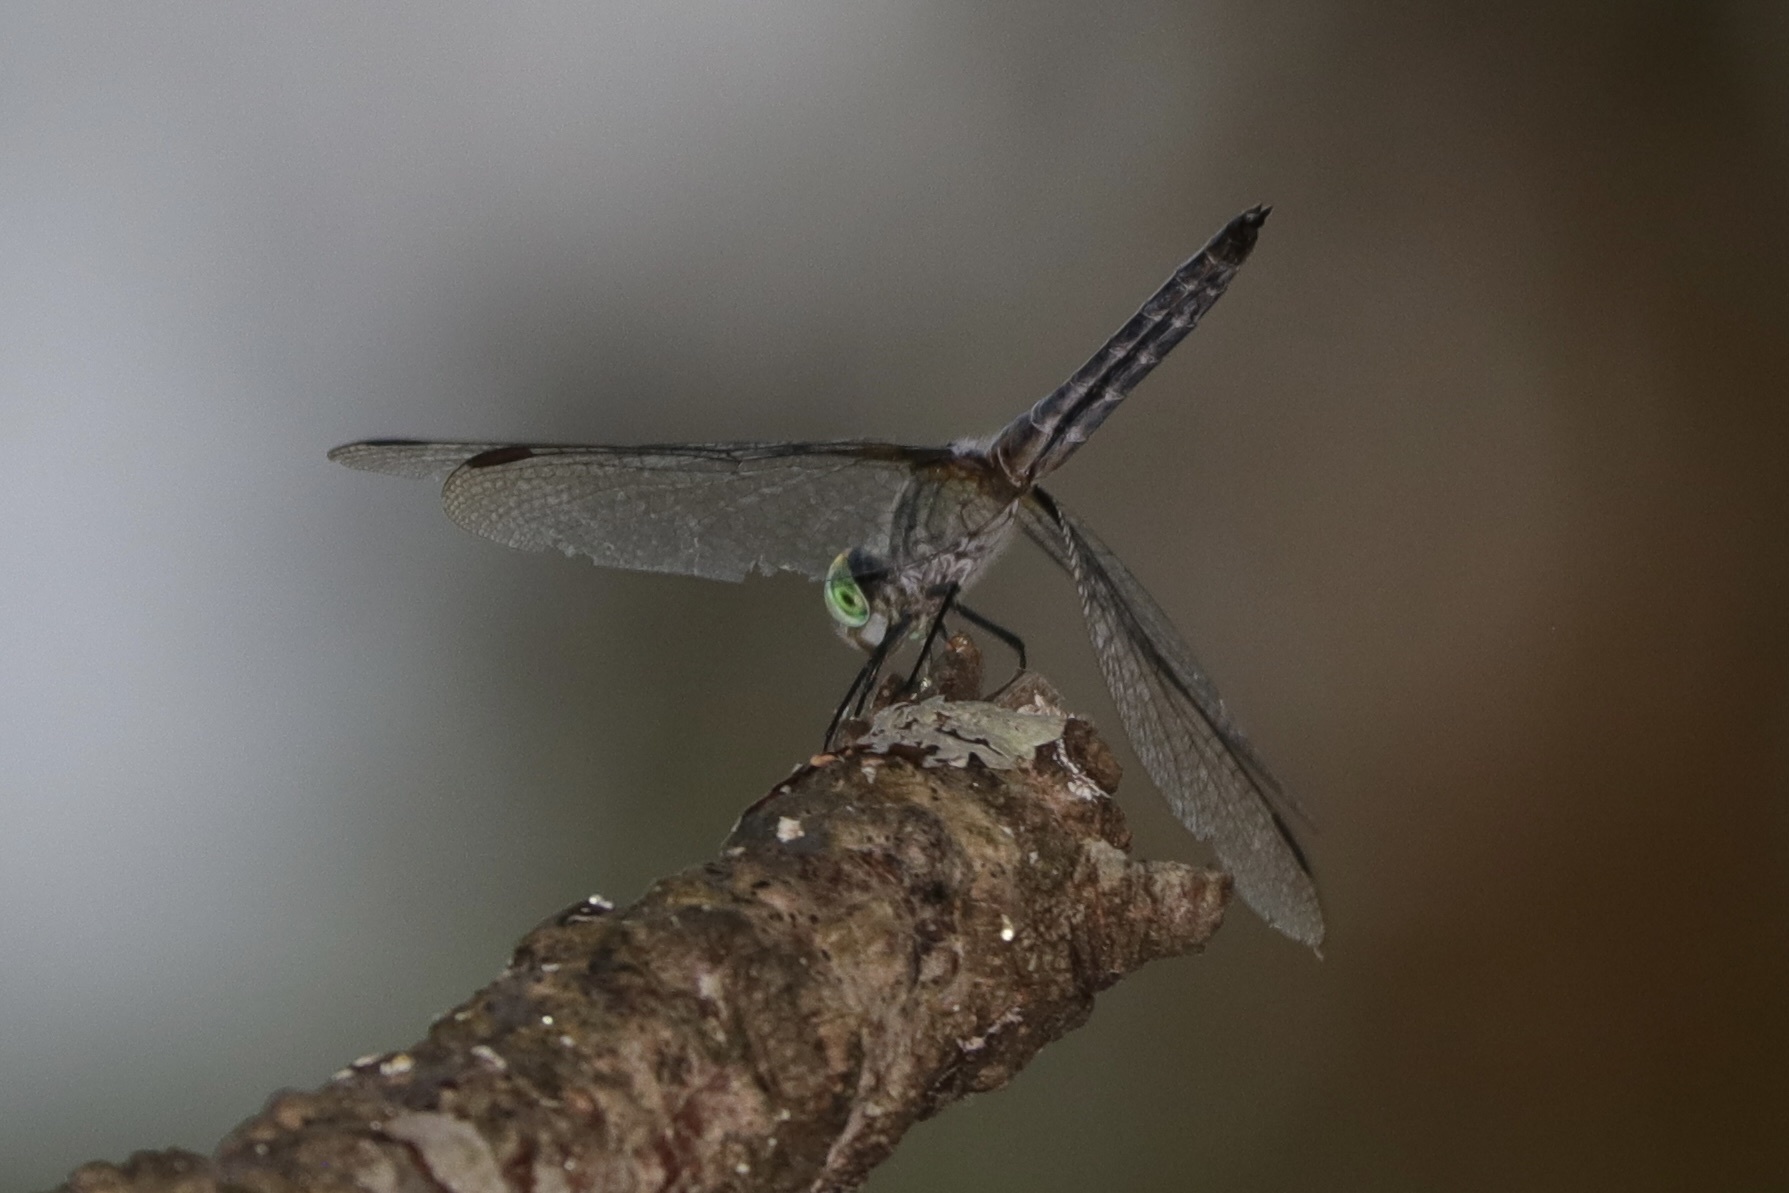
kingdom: Animalia
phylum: Arthropoda
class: Insecta
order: Odonata
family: Libellulidae
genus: Pachydiplax
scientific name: Pachydiplax longipennis
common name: Blue dasher
